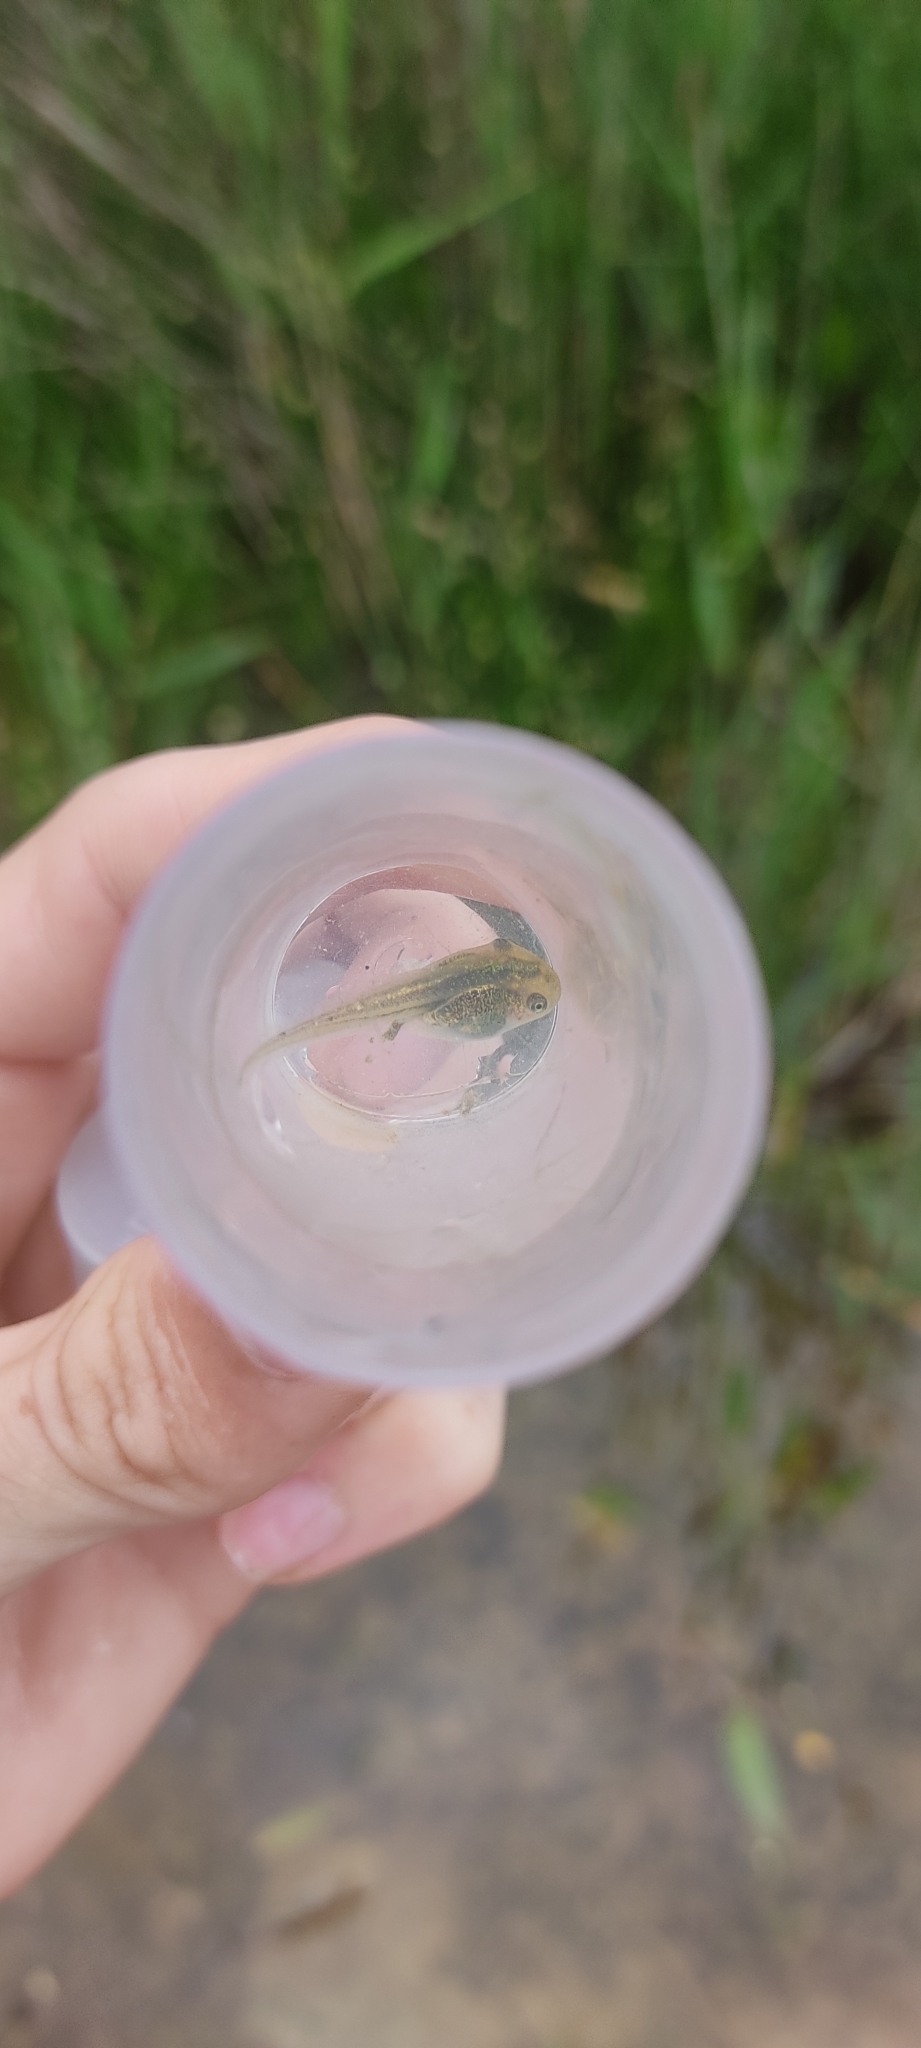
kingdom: Animalia
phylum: Chordata
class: Amphibia
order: Anura
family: Hylidae
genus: Hyla
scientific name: Hyla meridionalis
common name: Stripeless tree frog
